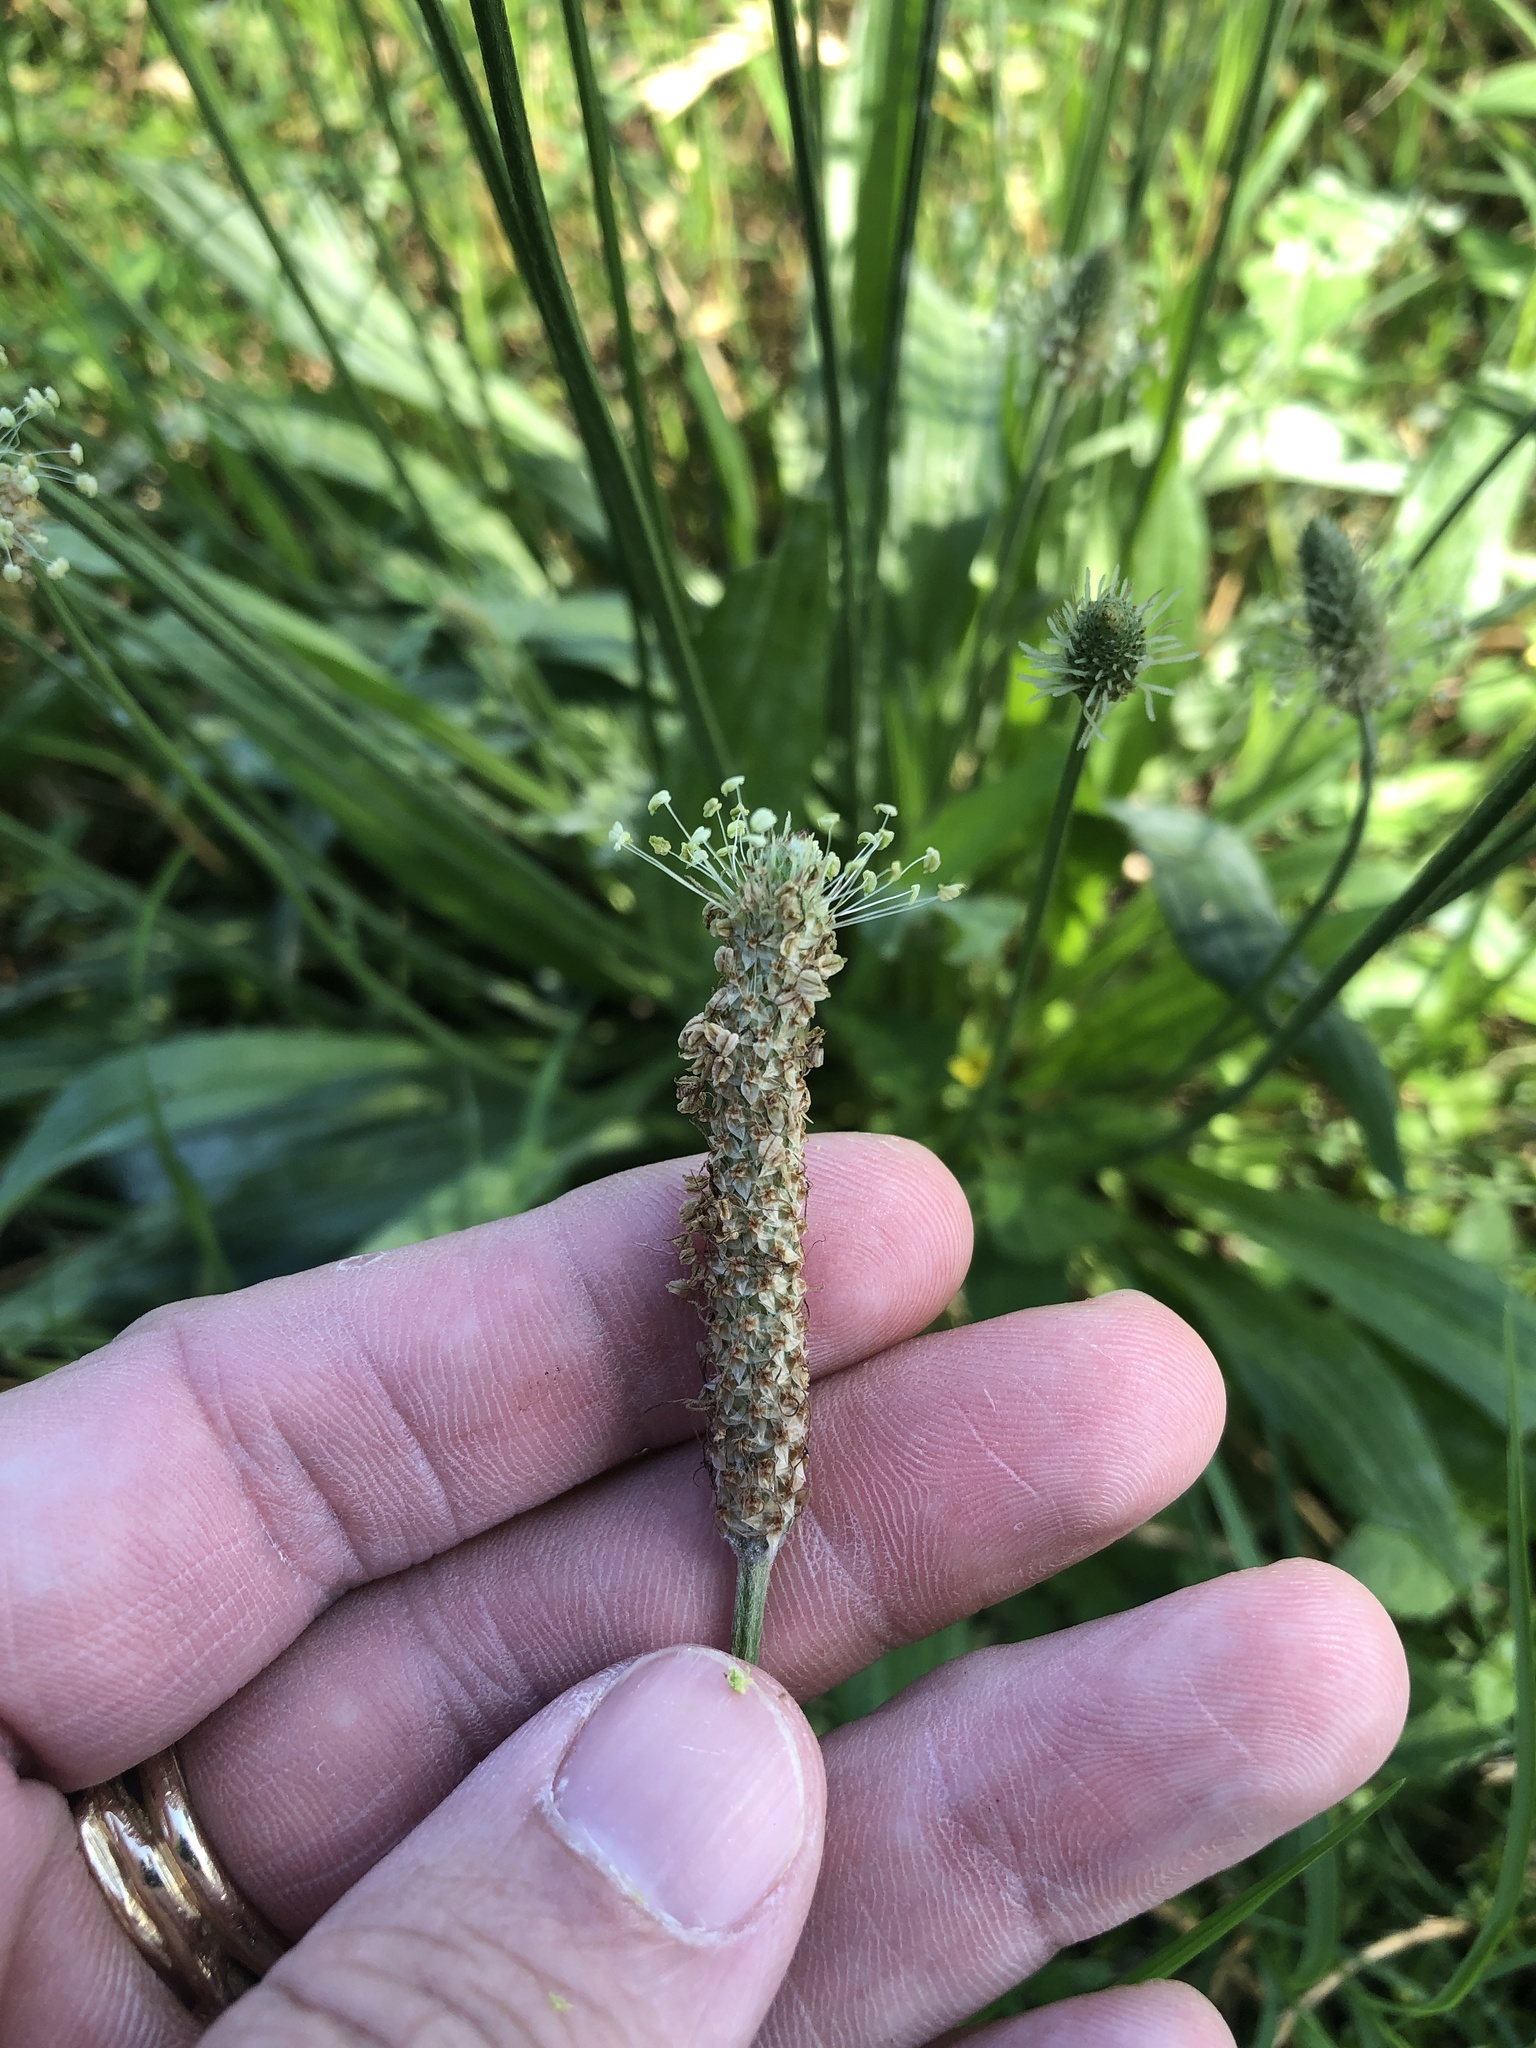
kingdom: Plantae
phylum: Tracheophyta
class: Magnoliopsida
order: Lamiales
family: Plantaginaceae
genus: Plantago
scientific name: Plantago lanceolata
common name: Ribwort plantain
